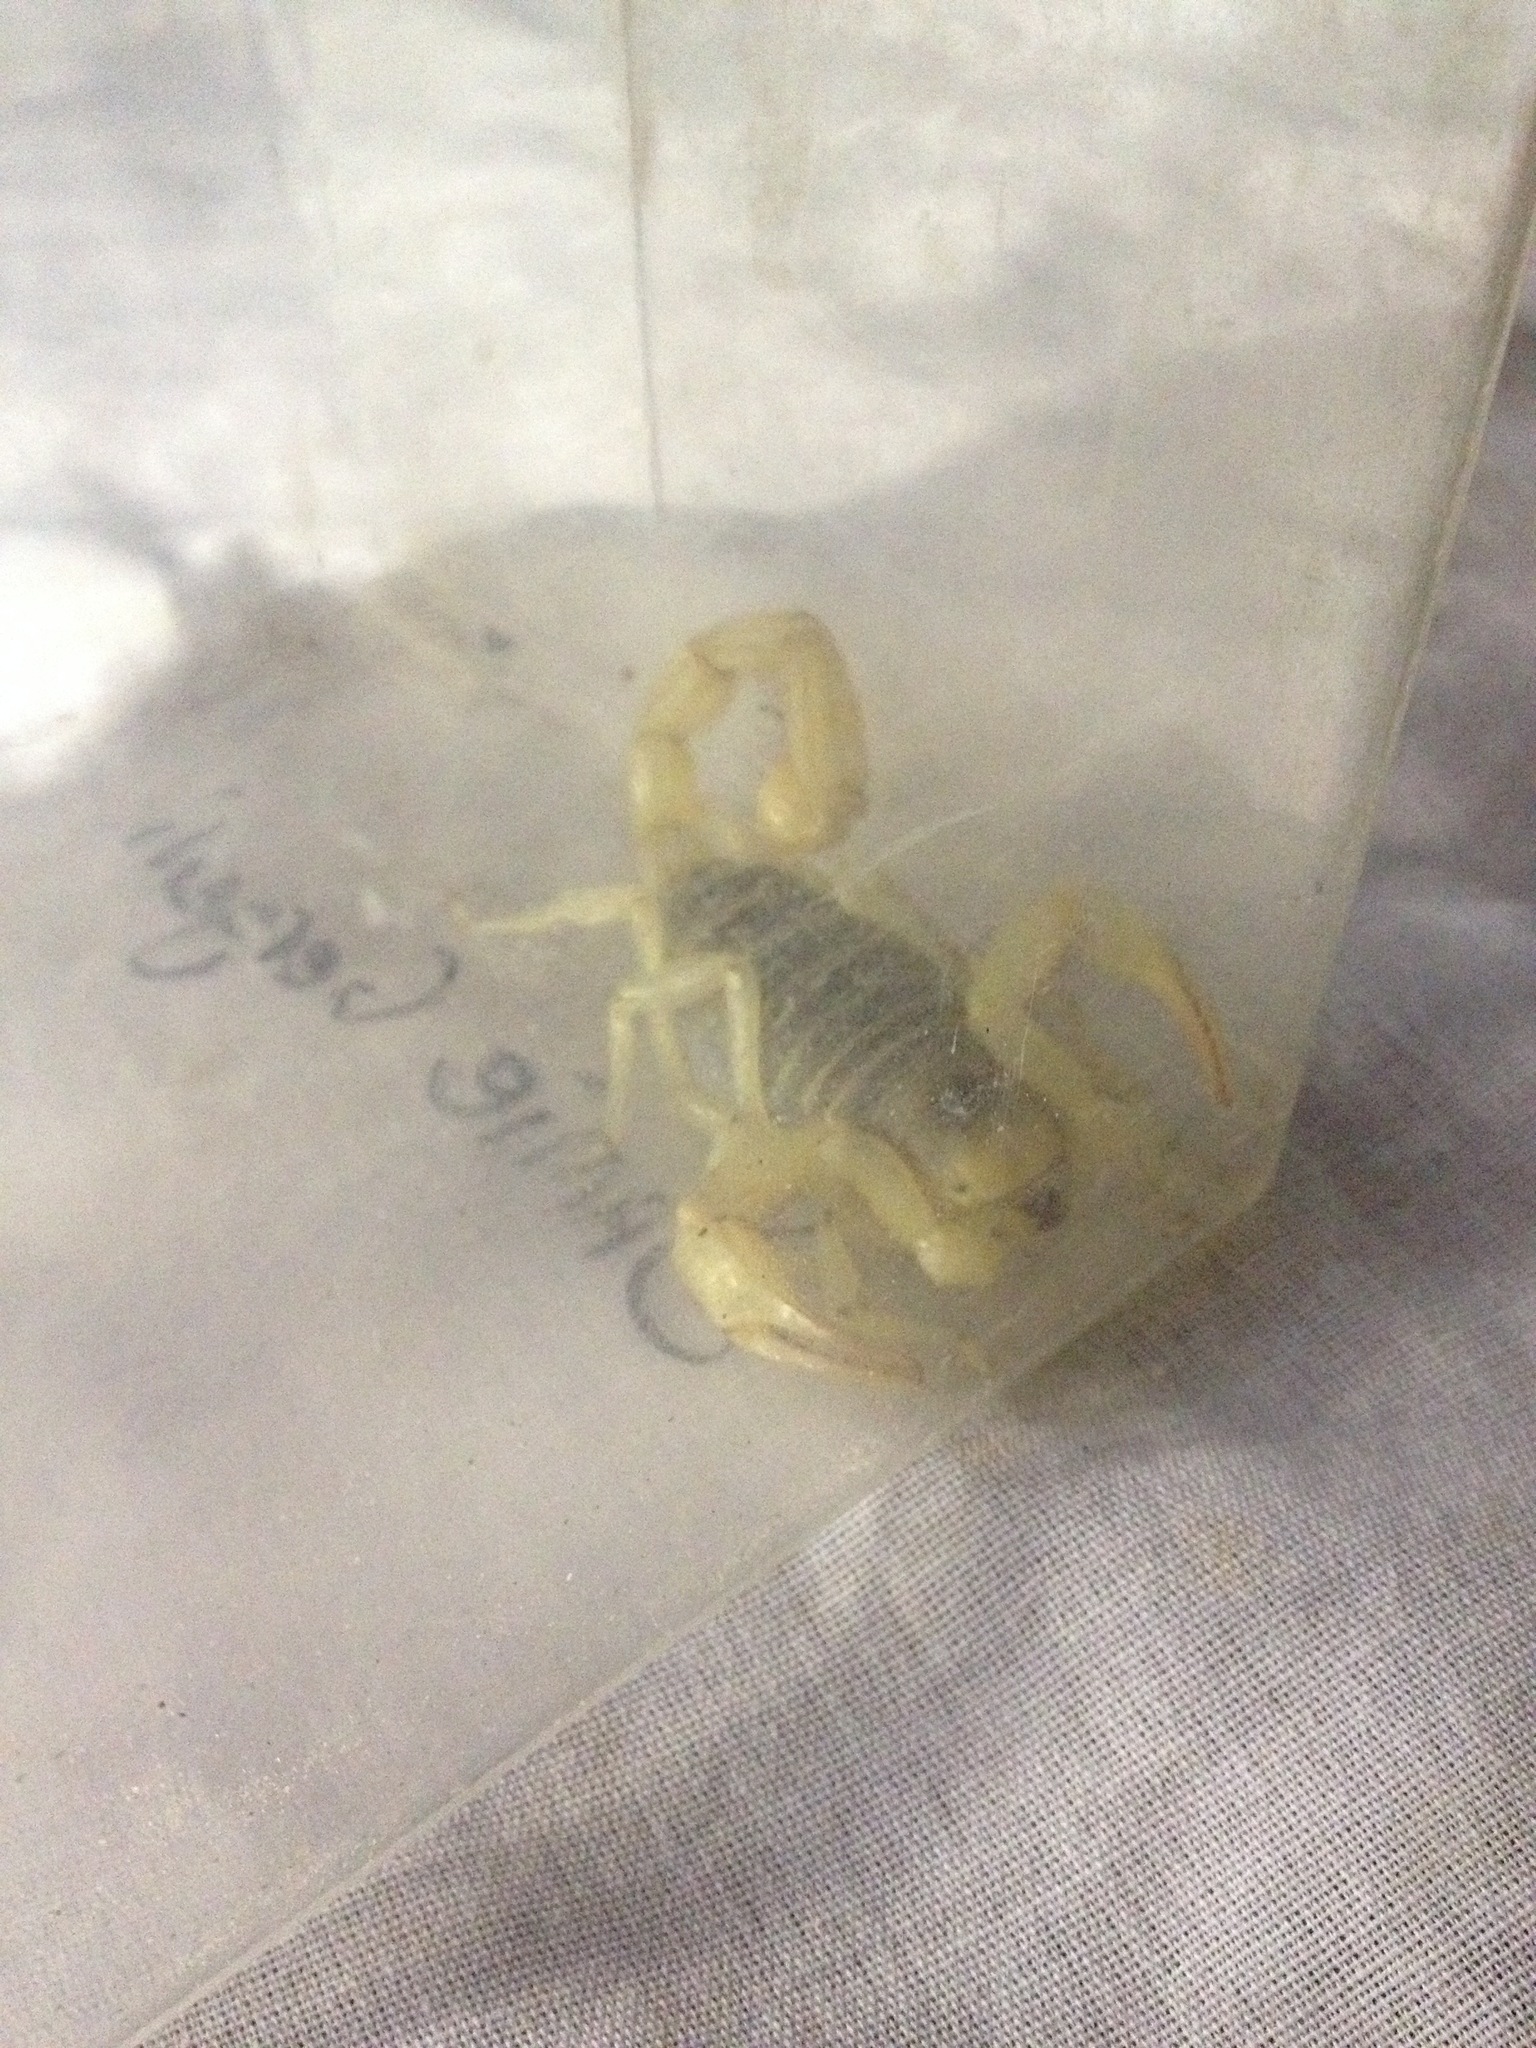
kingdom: Animalia
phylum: Arthropoda
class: Arachnida
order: Scorpiones
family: Hadruridae
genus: Hadrurus
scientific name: Hadrurus arizonensis
